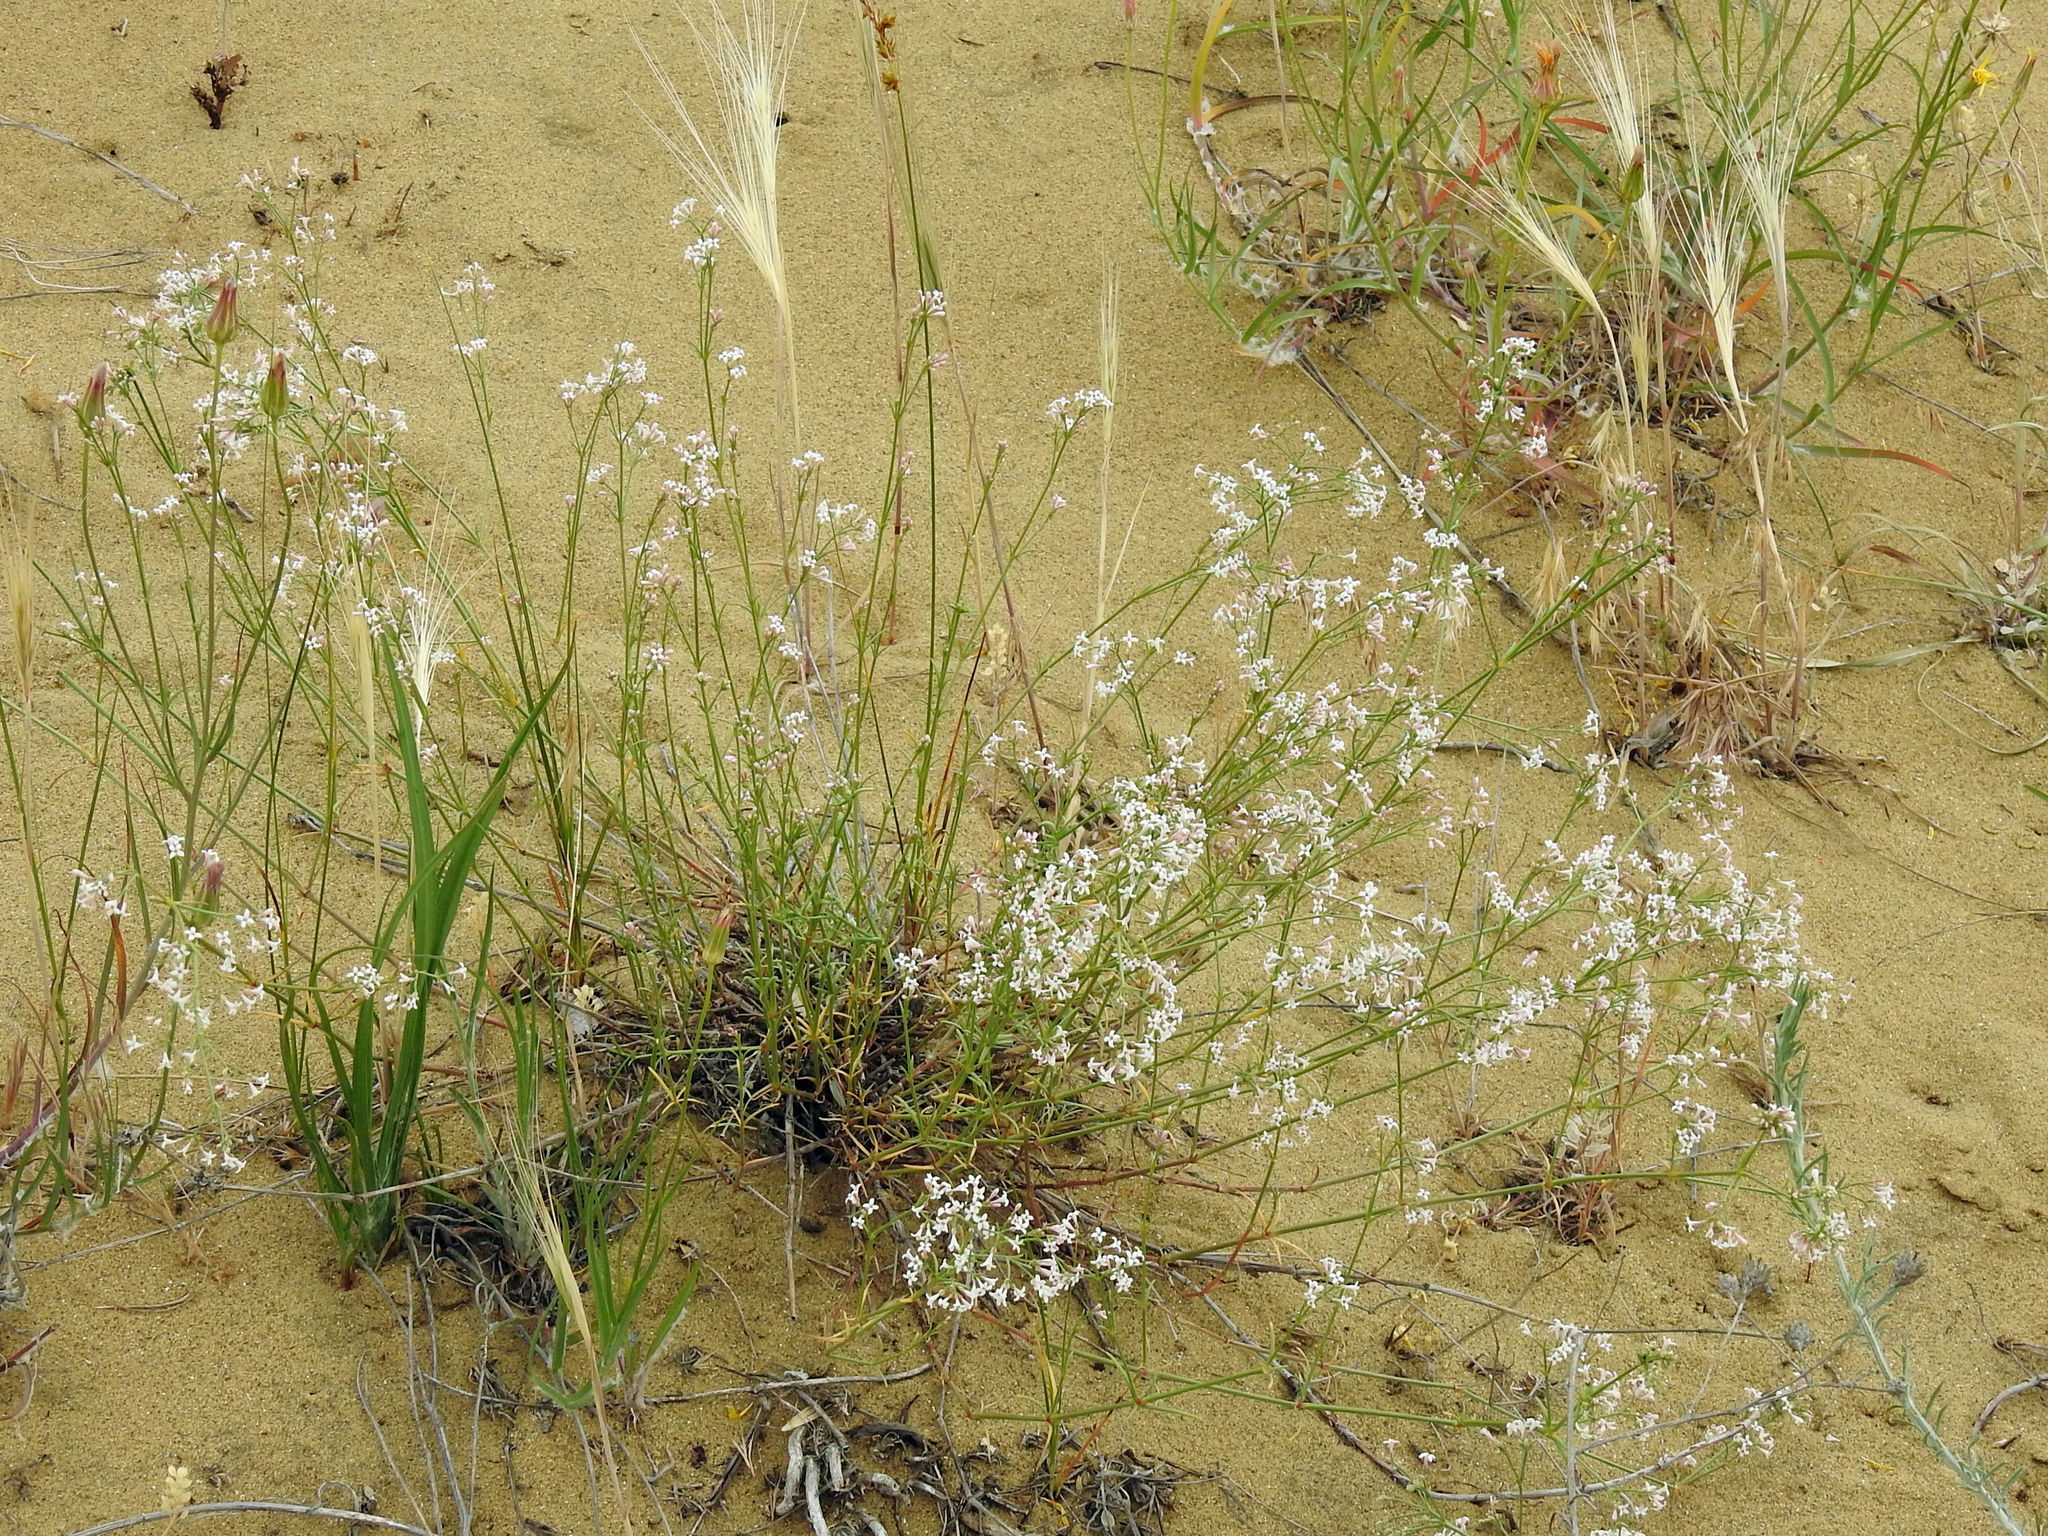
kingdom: Plantae
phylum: Tracheophyta
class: Magnoliopsida
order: Gentianales
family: Rubiaceae
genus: Cynanchica
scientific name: Cynanchica diminuta
